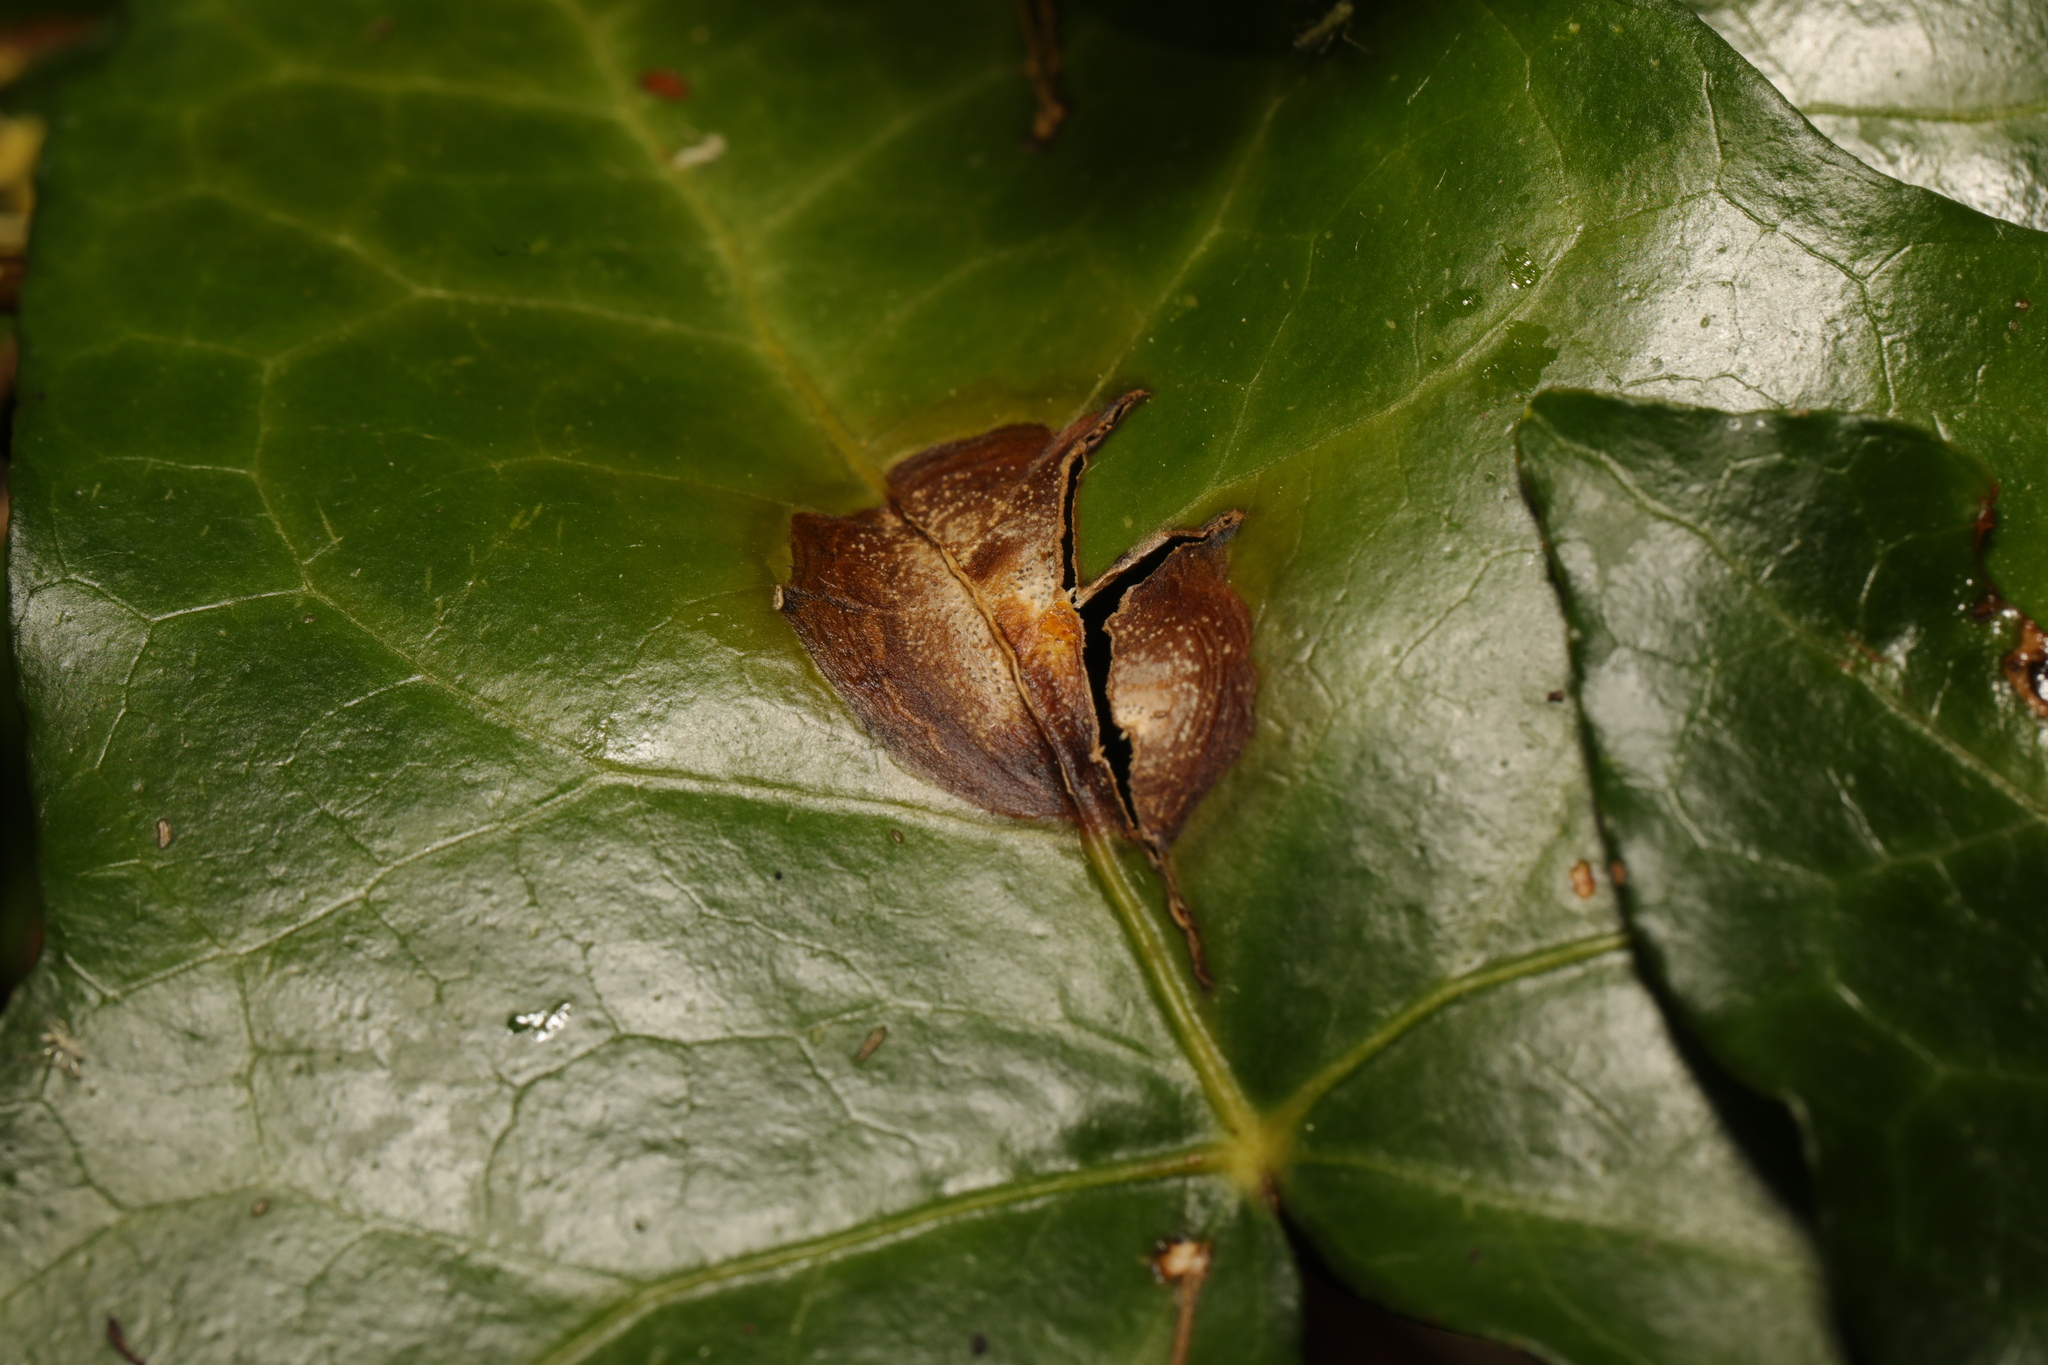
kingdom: Fungi
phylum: Ascomycota
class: Dothideomycetes
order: Pleosporales
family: Didymellaceae
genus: Boeremia
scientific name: Boeremia hedericola
